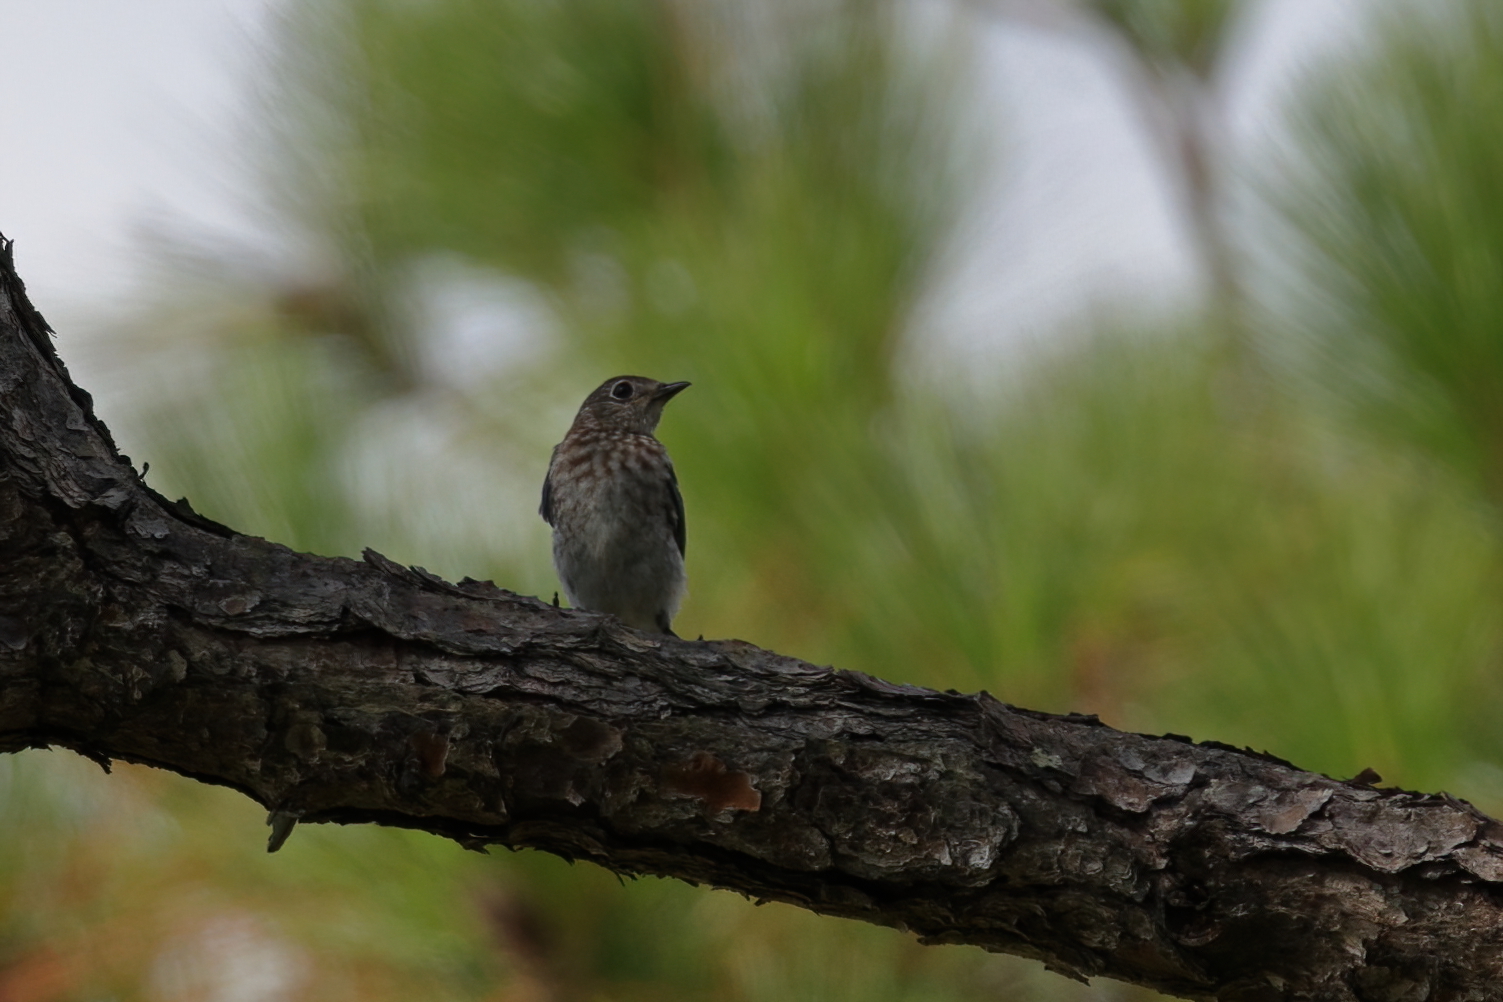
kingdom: Animalia
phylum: Chordata
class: Aves
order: Passeriformes
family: Turdidae
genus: Sialia
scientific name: Sialia sialis
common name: Eastern bluebird
